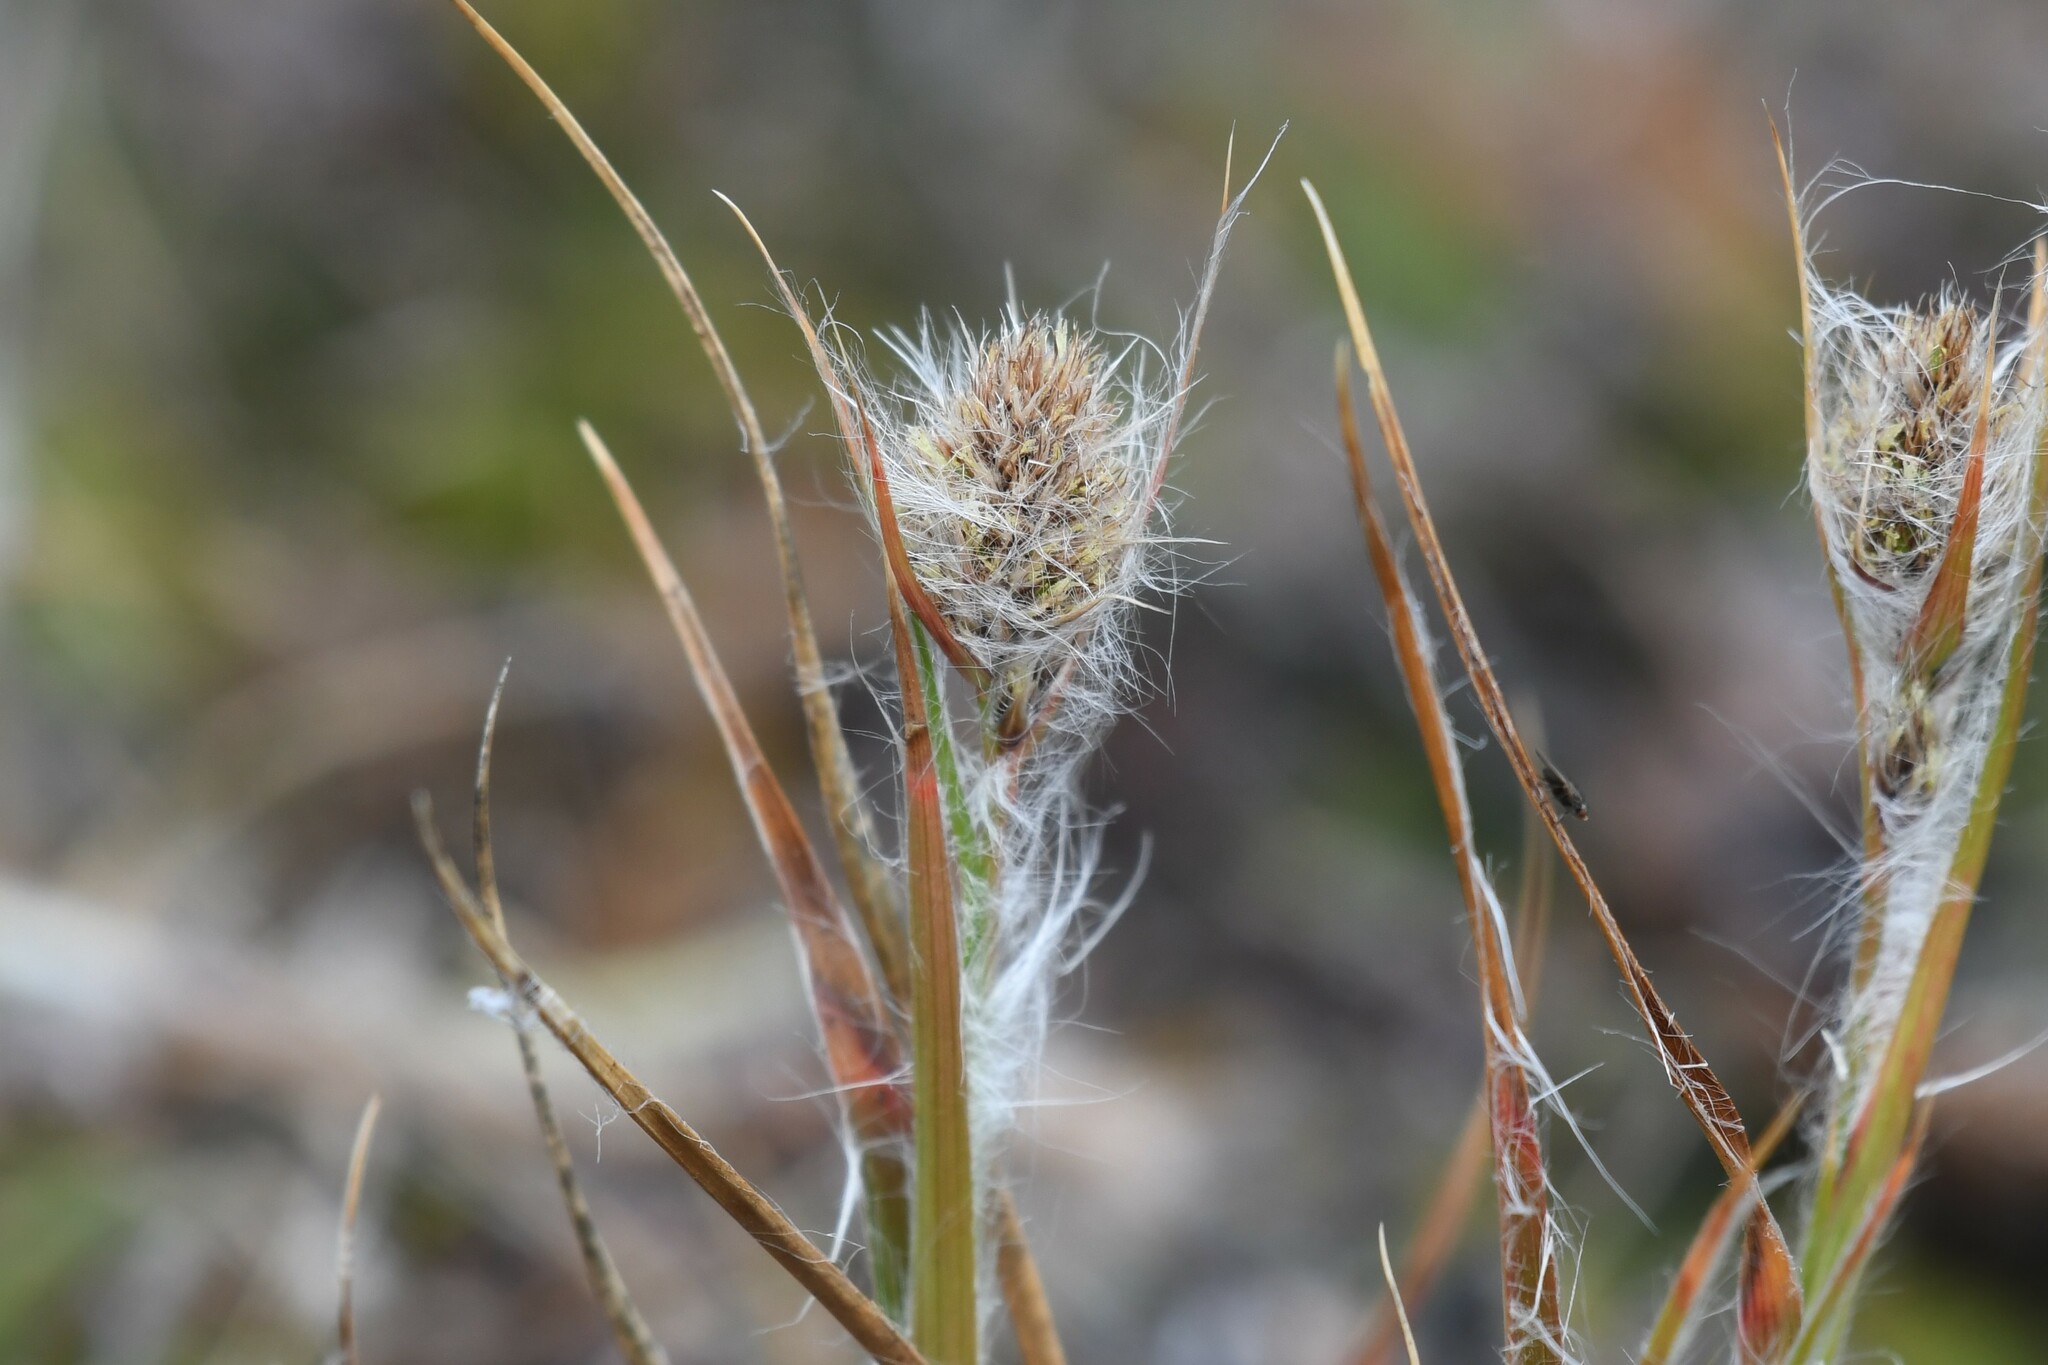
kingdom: Plantae
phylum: Tracheophyta
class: Liliopsida
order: Poales
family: Juncaceae
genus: Luzula
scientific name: Luzula alopecurus
